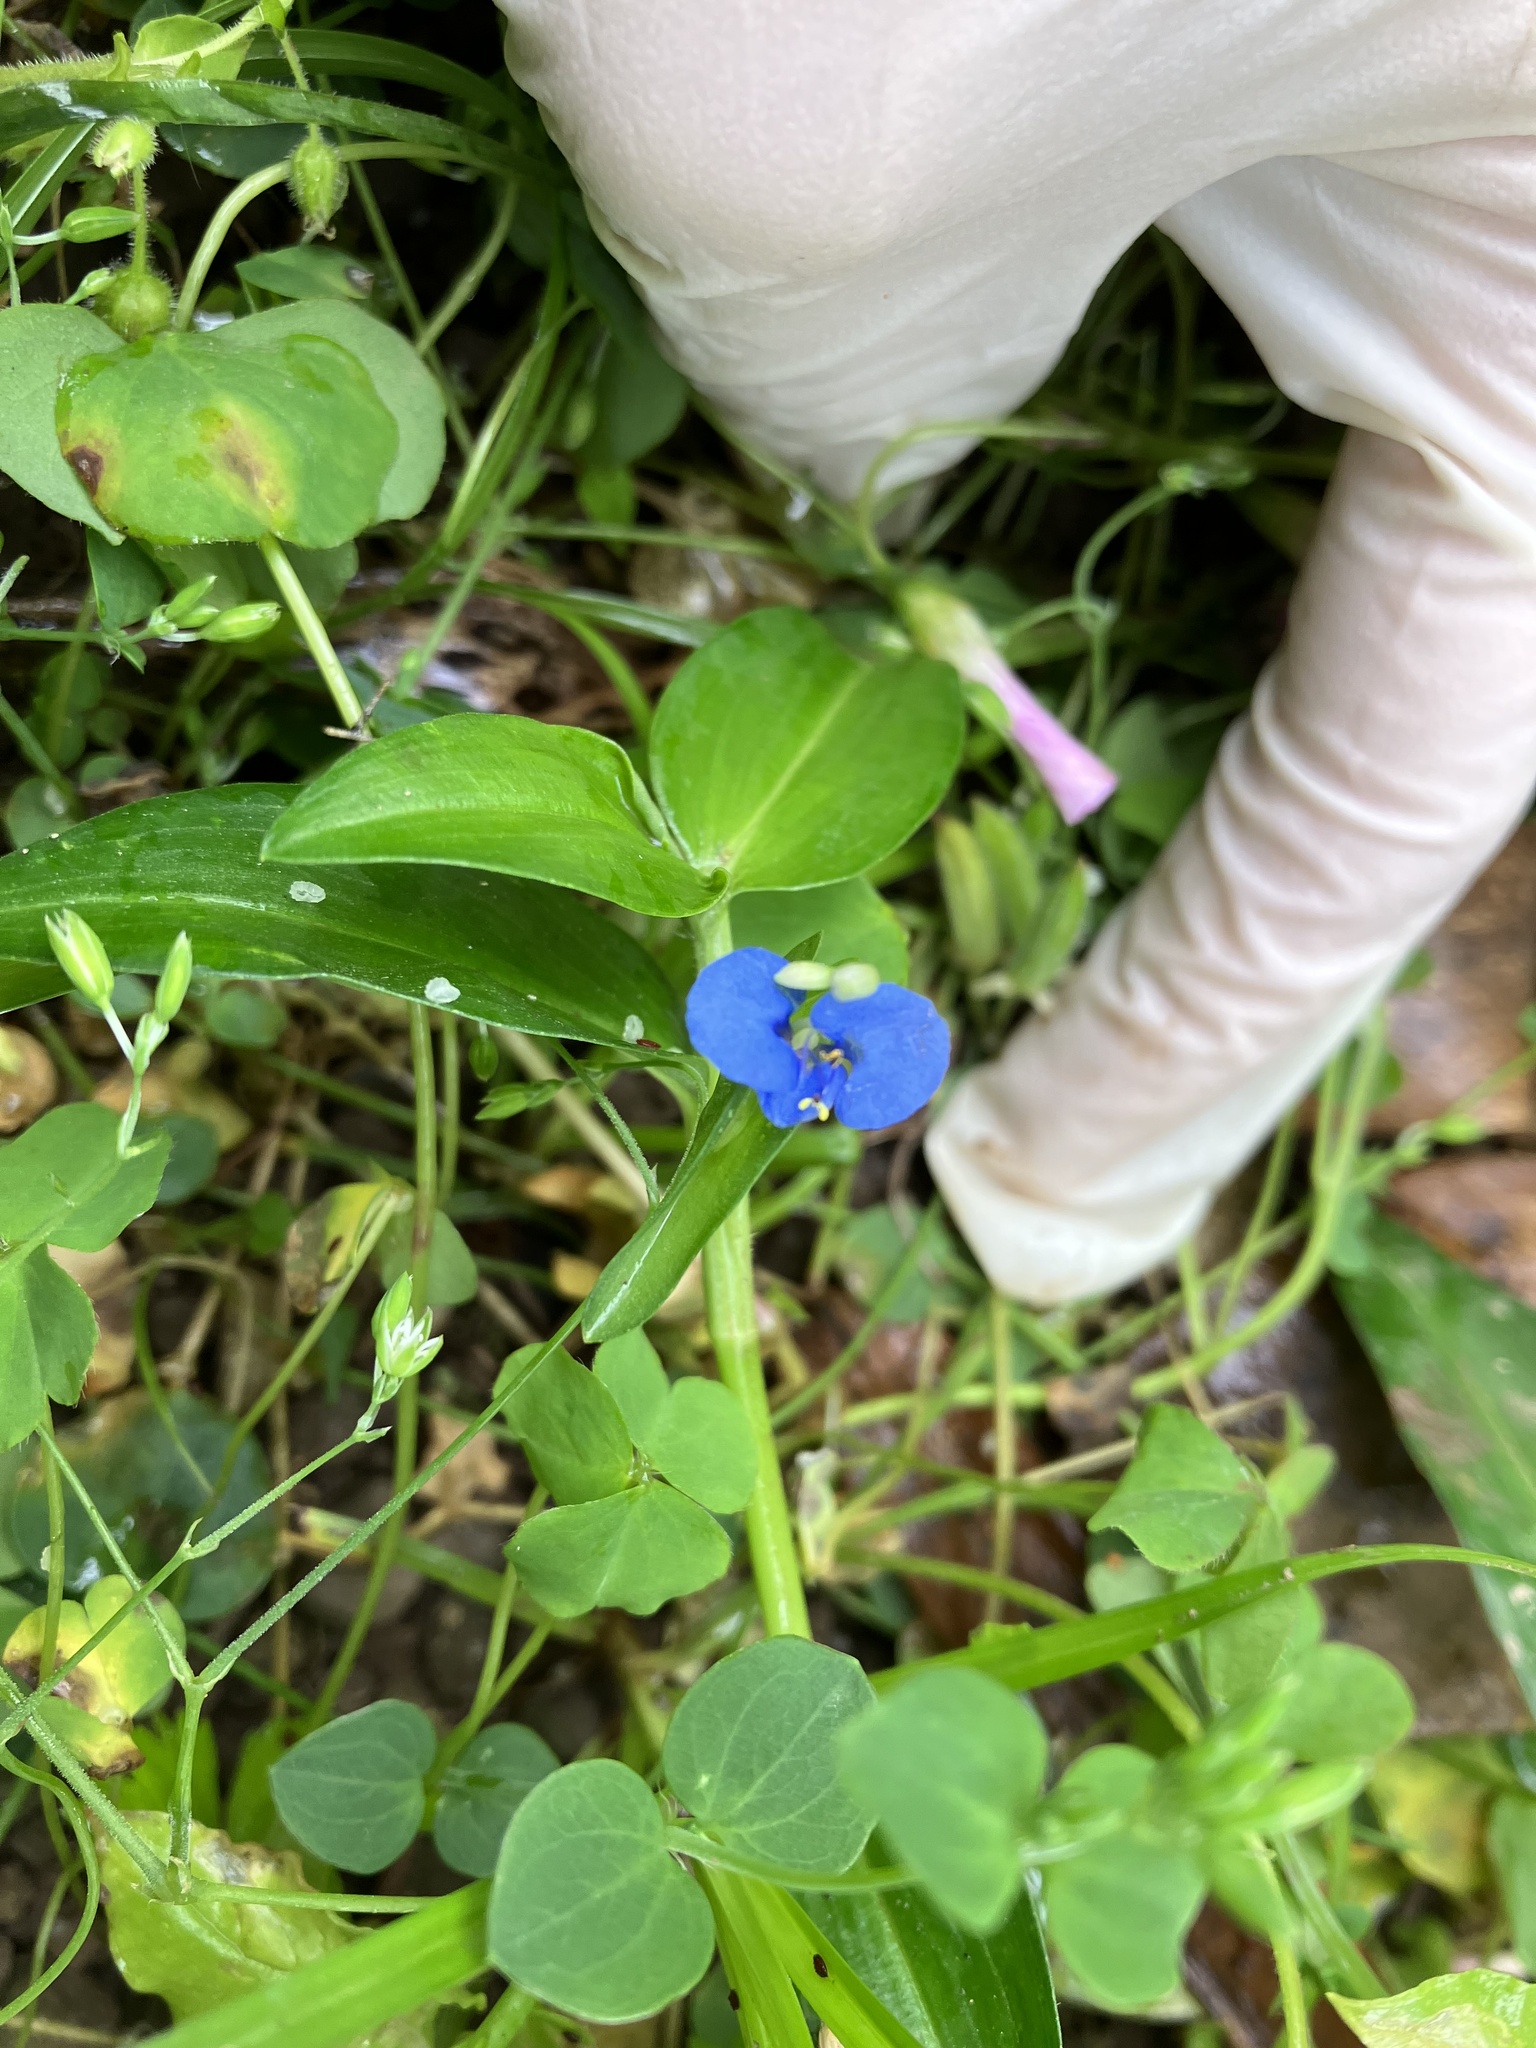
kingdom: Plantae
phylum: Tracheophyta
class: Liliopsida
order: Commelinales
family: Commelinaceae
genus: Commelina
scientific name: Commelina diffusa
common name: Climbing dayflower
